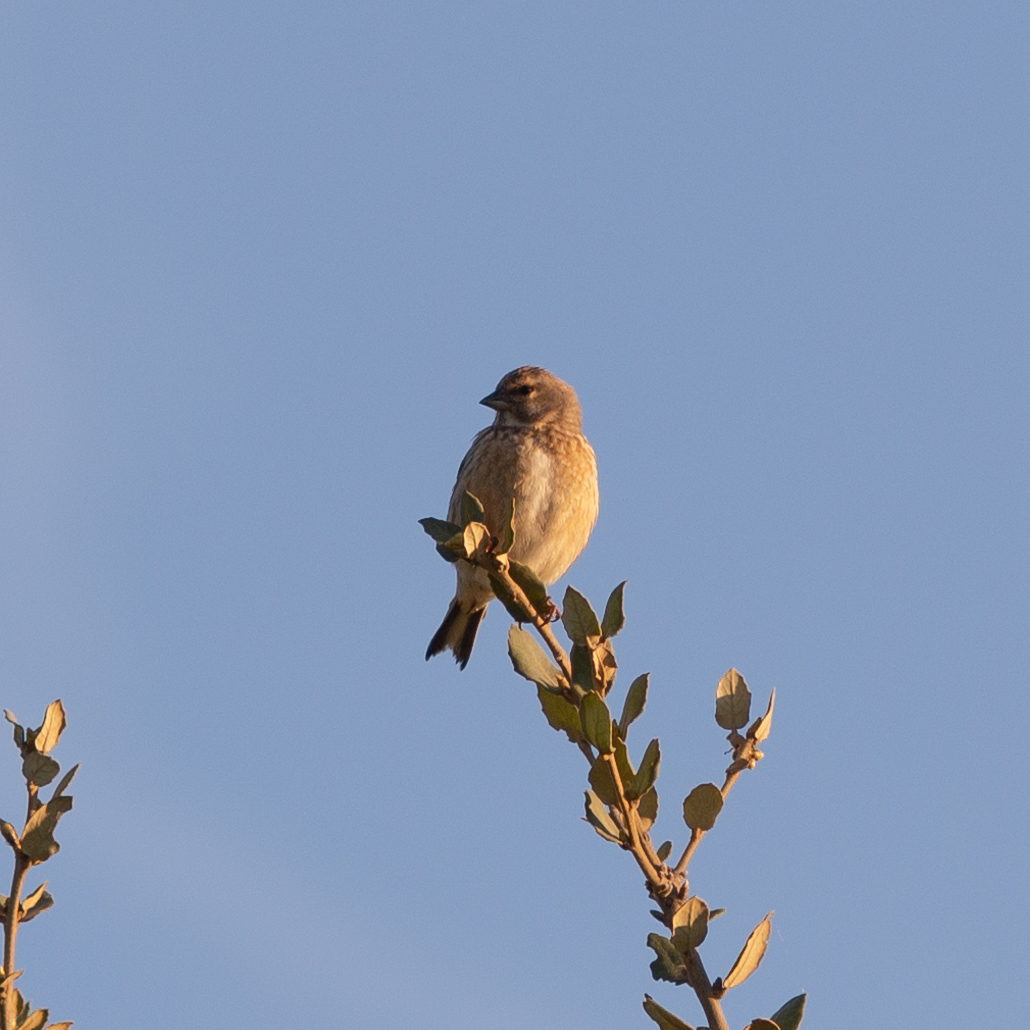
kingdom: Animalia
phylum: Chordata
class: Aves
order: Passeriformes
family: Fringillidae
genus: Linaria
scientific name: Linaria cannabina
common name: Common linnet
